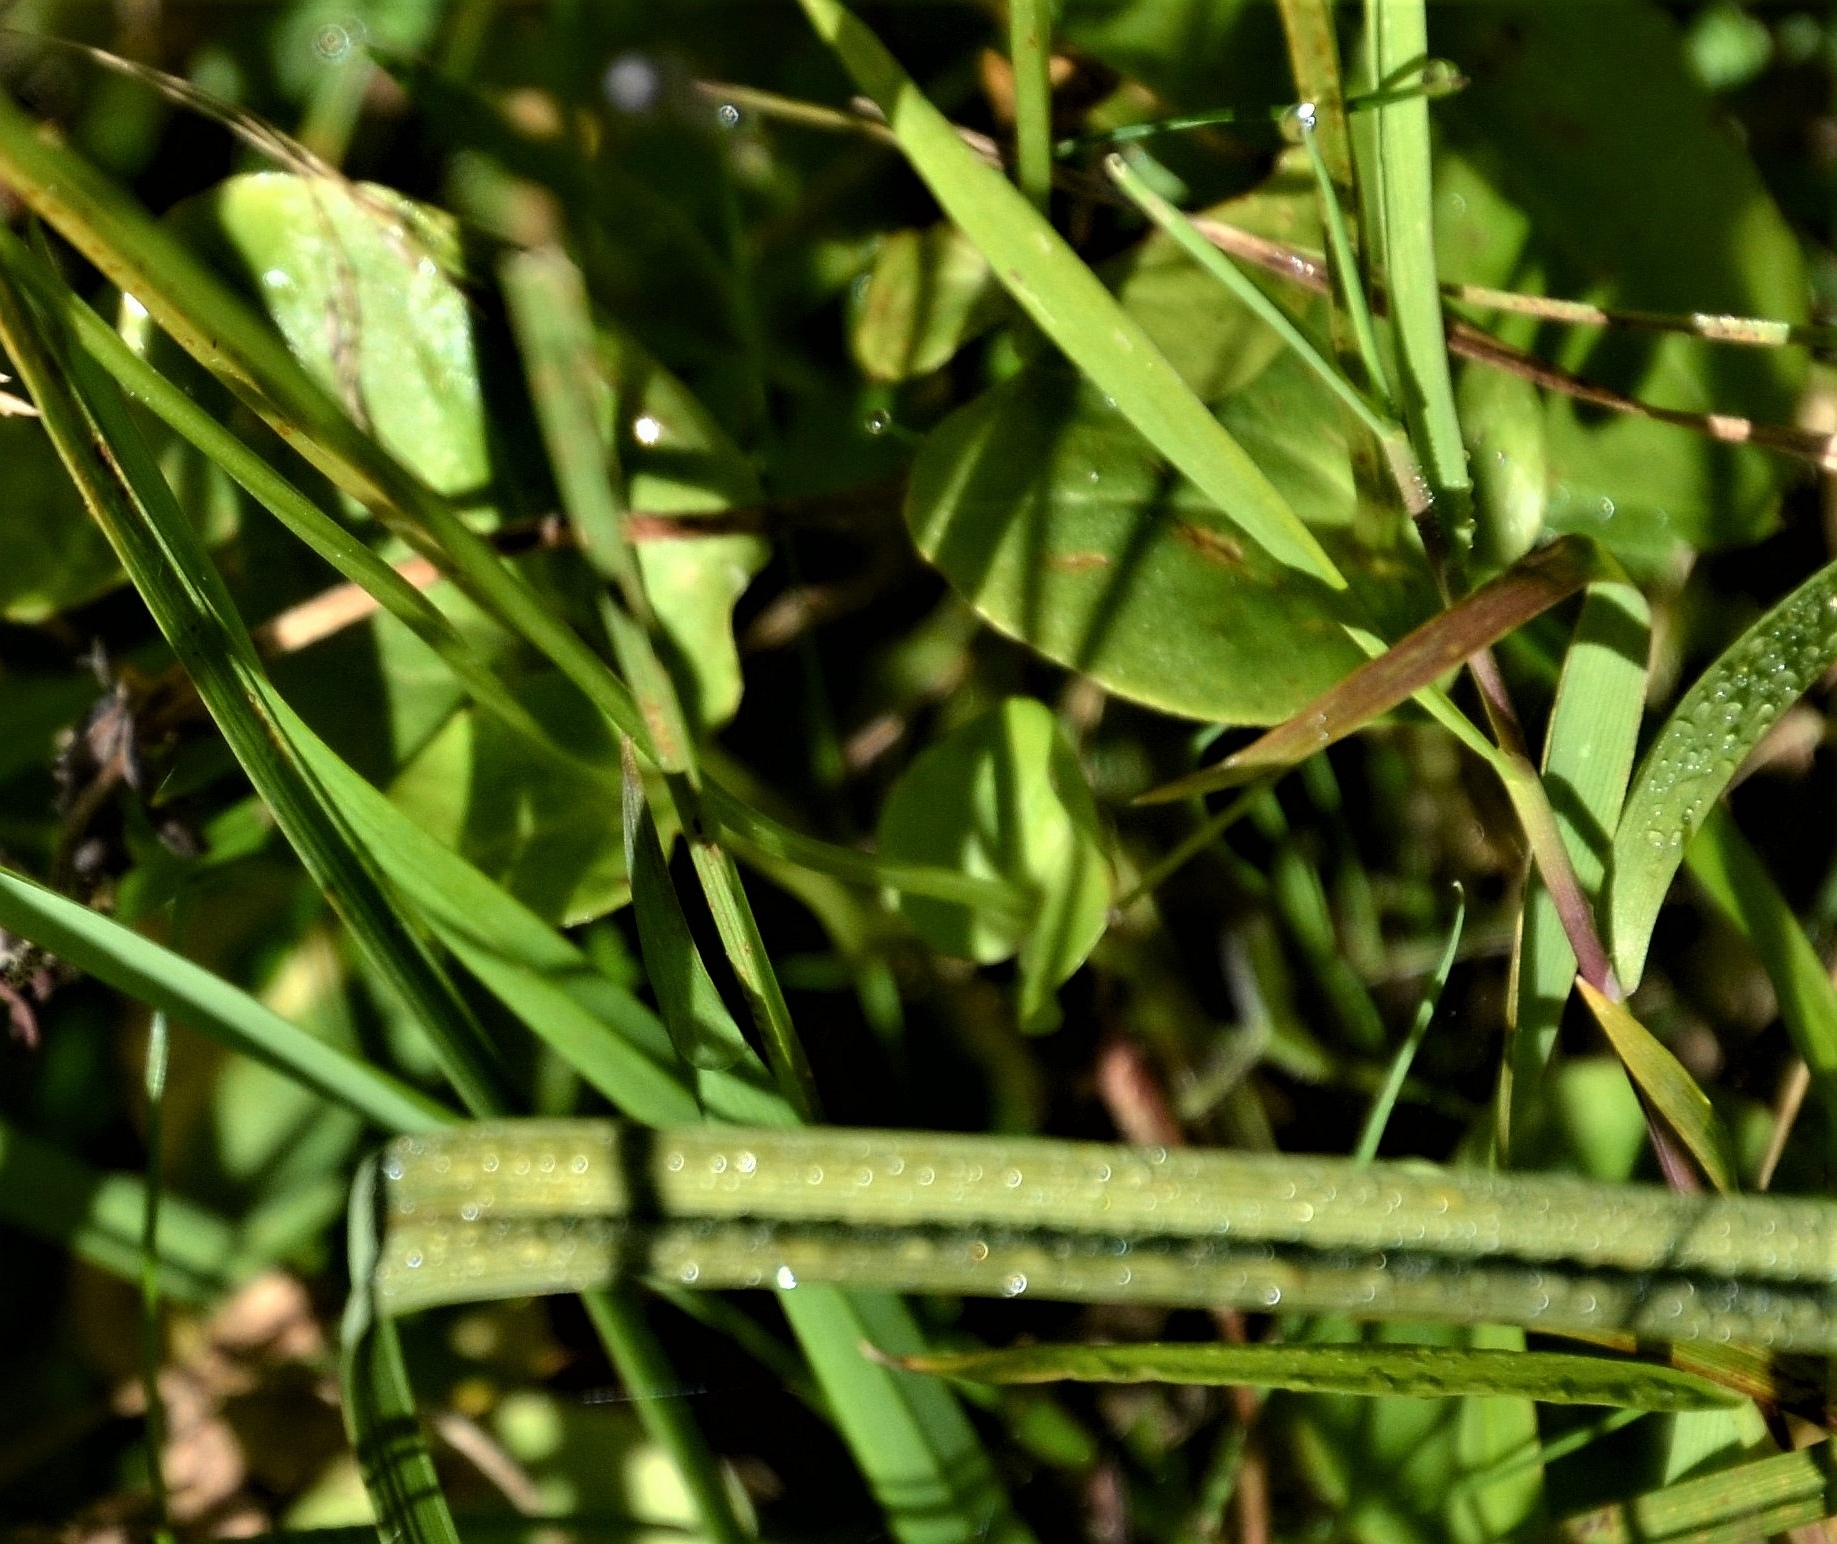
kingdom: Plantae
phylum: Tracheophyta
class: Magnoliopsida
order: Celastrales
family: Parnassiaceae
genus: Parnassia
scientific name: Parnassia palustris
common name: Grass-of-parnassus
